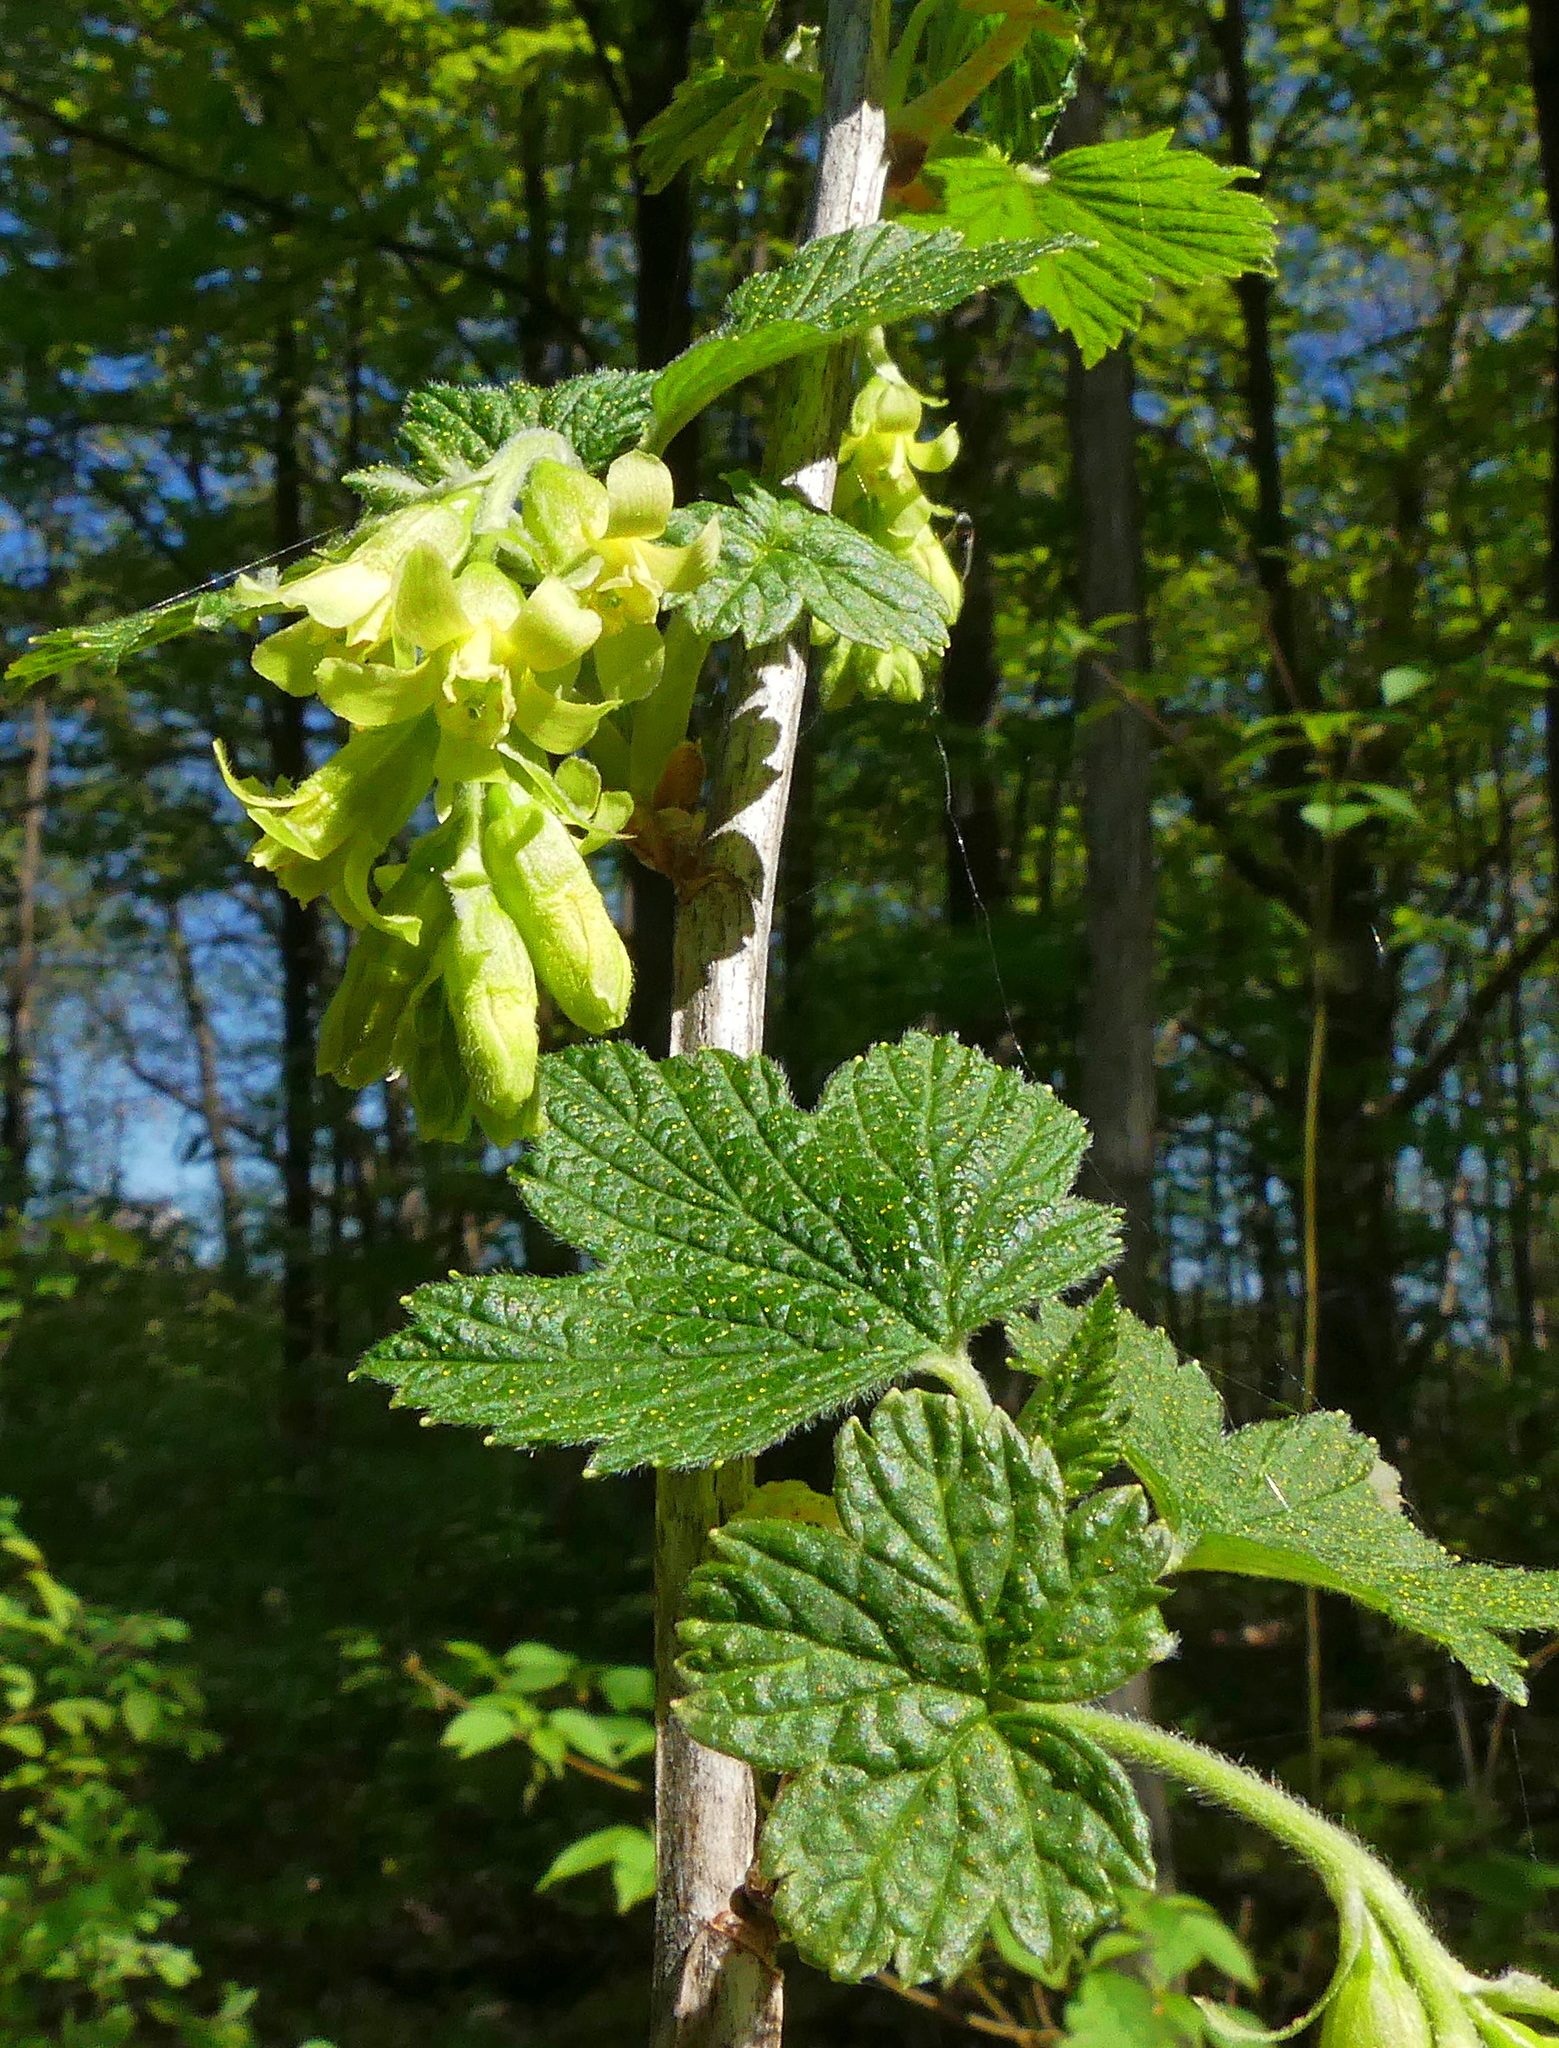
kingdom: Plantae
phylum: Tracheophyta
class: Magnoliopsida
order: Saxifragales
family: Grossulariaceae
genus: Ribes
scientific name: Ribes americanum
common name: American black currant
